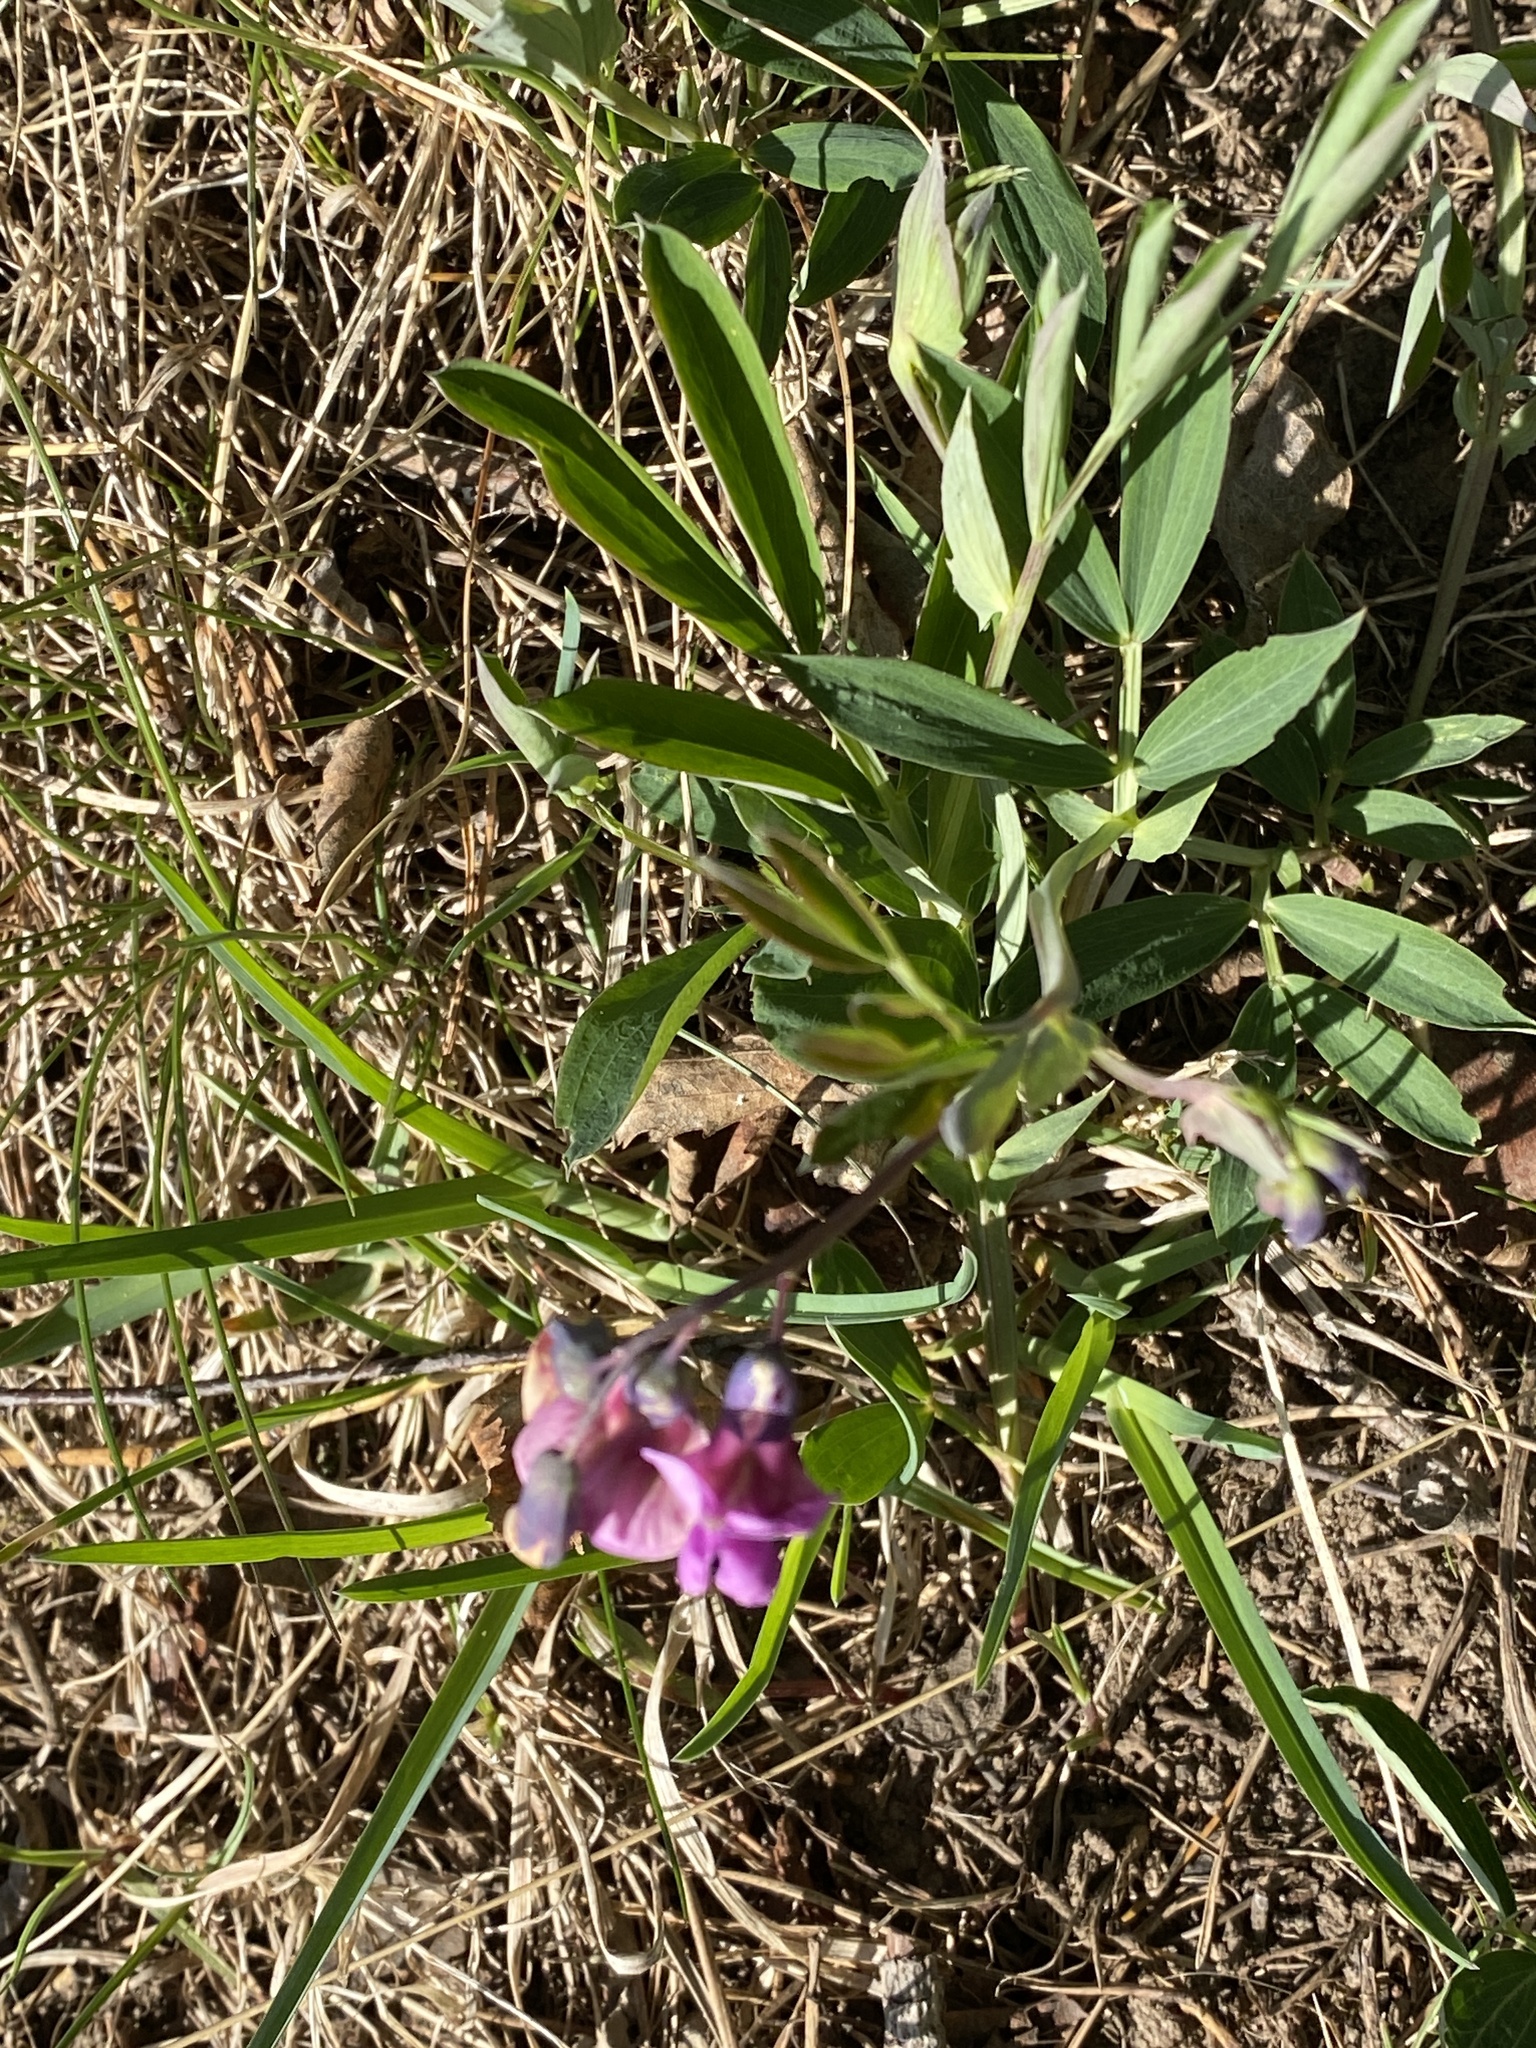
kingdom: Plantae
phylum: Tracheophyta
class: Magnoliopsida
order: Fabales
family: Fabaceae
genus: Lathyrus
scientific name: Lathyrus linifolius
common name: Bitter-vetch
